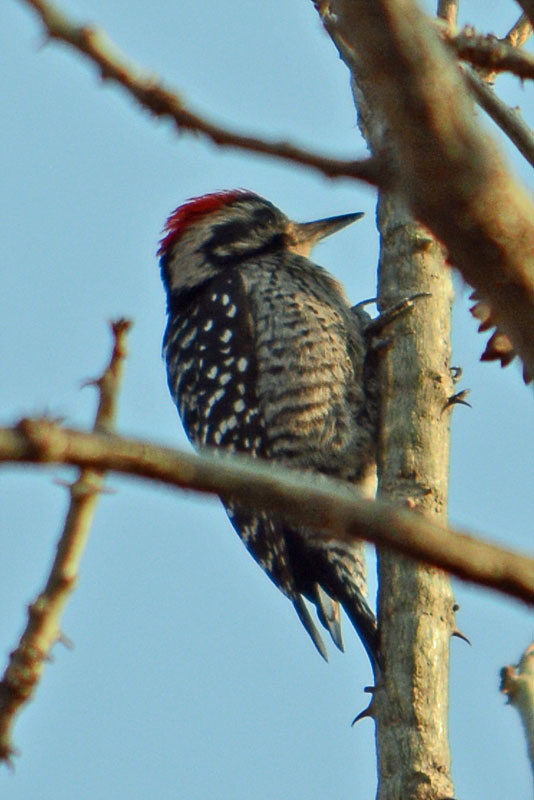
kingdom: Animalia
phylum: Chordata
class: Aves
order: Piciformes
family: Picidae
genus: Dryobates
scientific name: Dryobates scalaris
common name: Ladder-backed woodpecker
